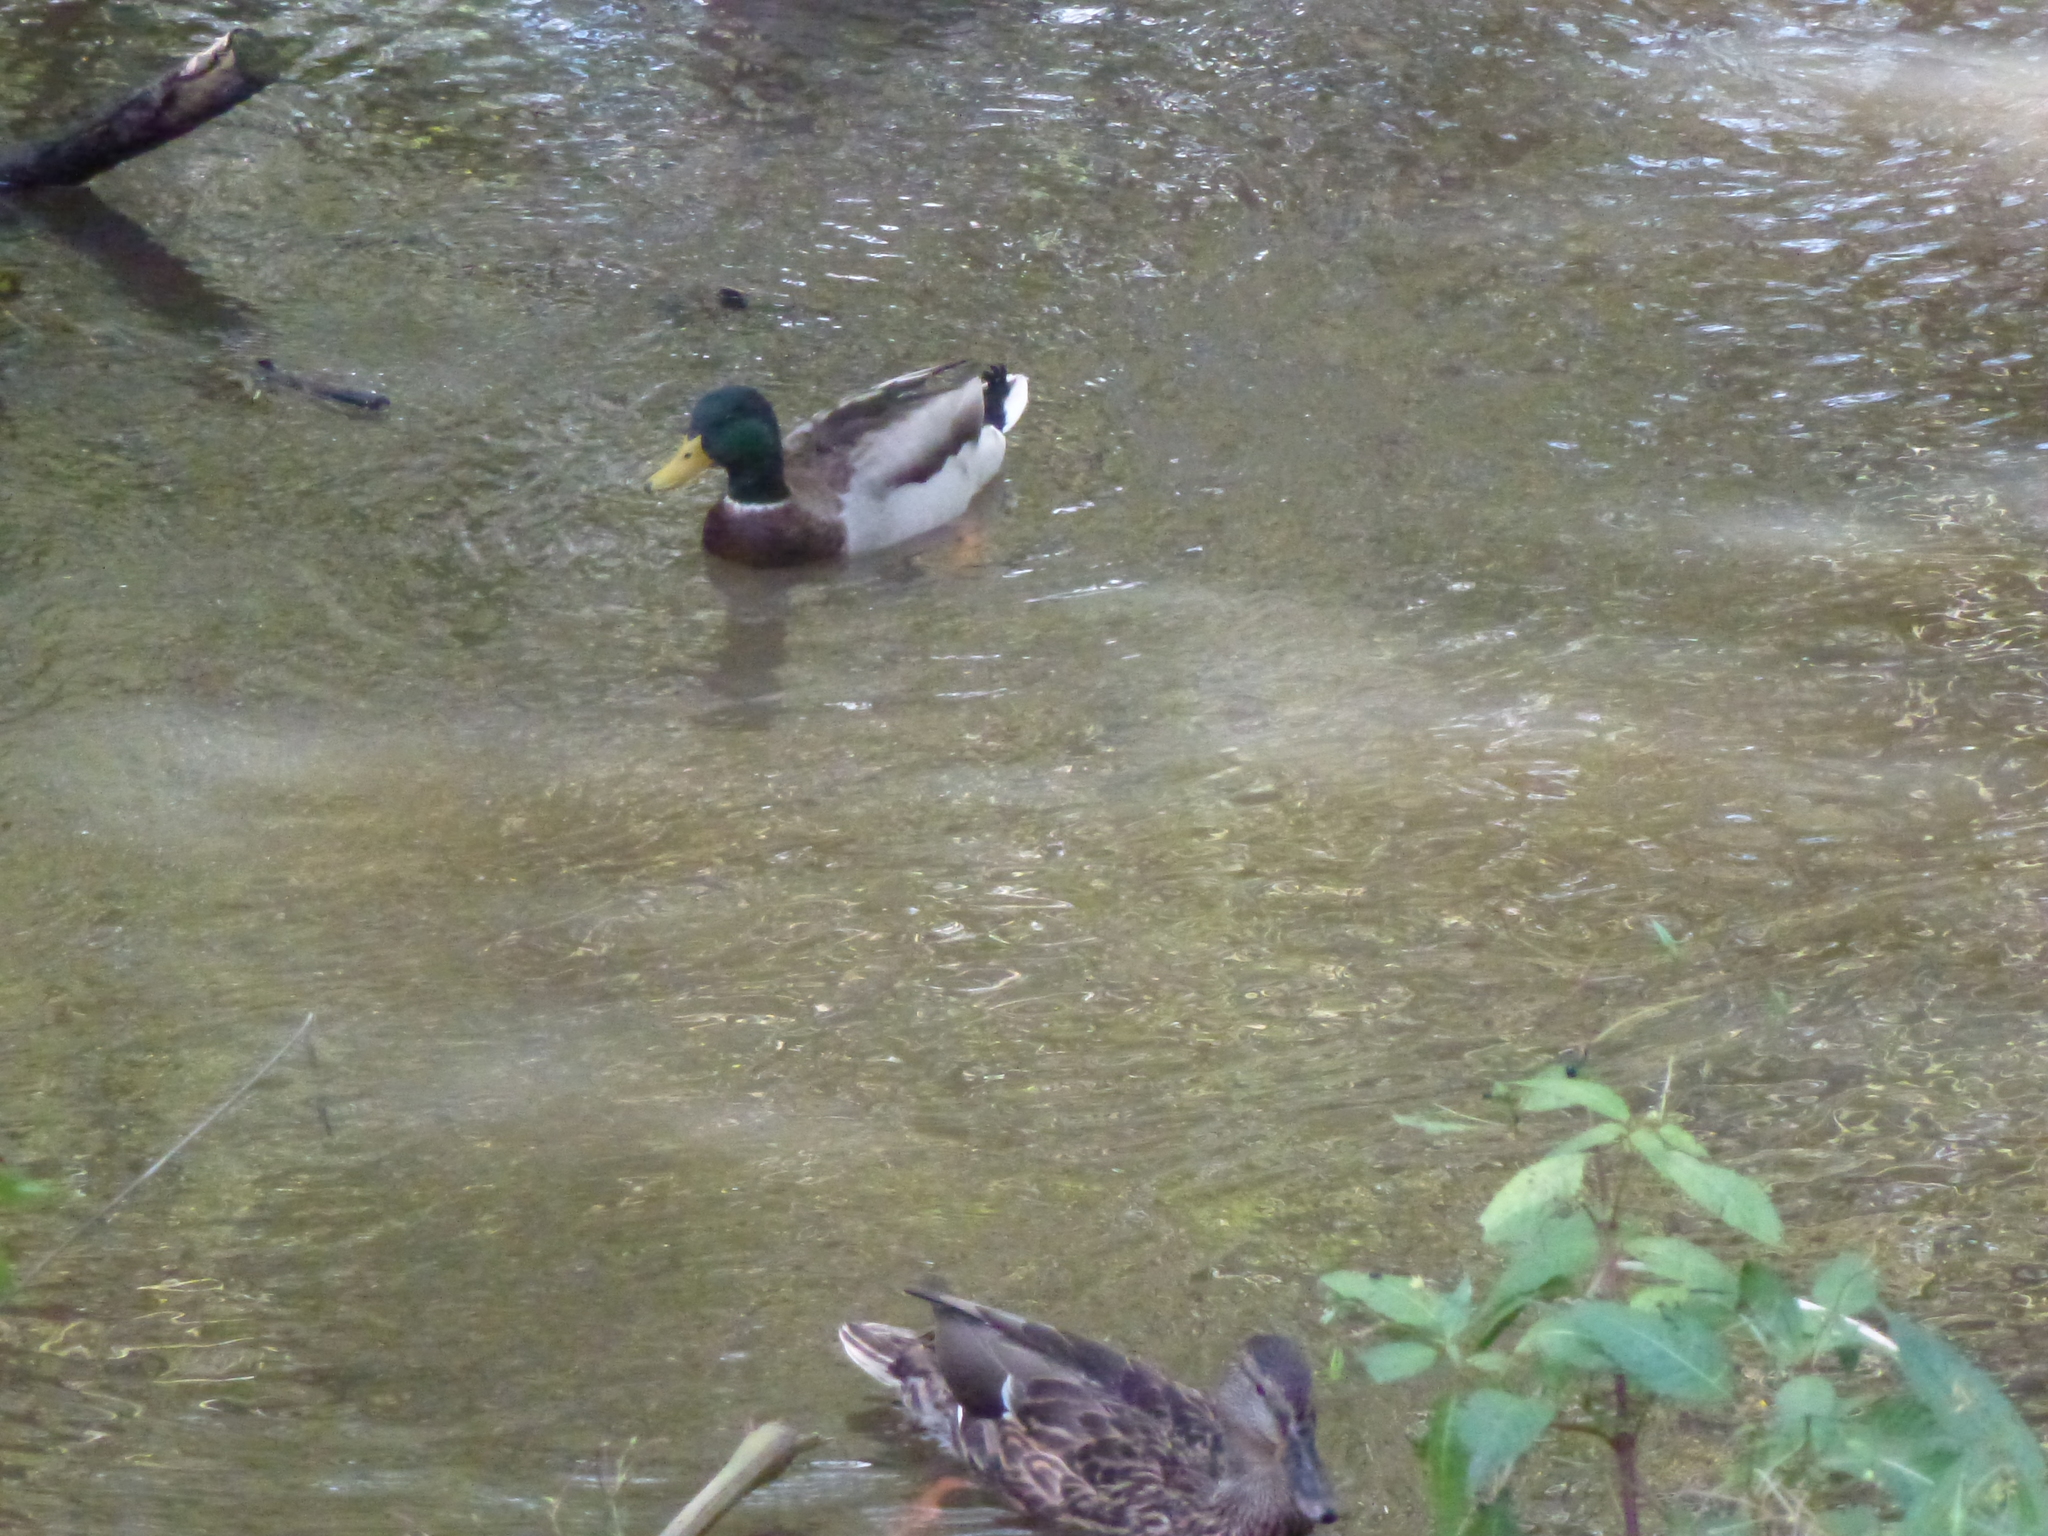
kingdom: Animalia
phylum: Chordata
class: Aves
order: Anseriformes
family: Anatidae
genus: Anas
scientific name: Anas platyrhynchos
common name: Mallard
